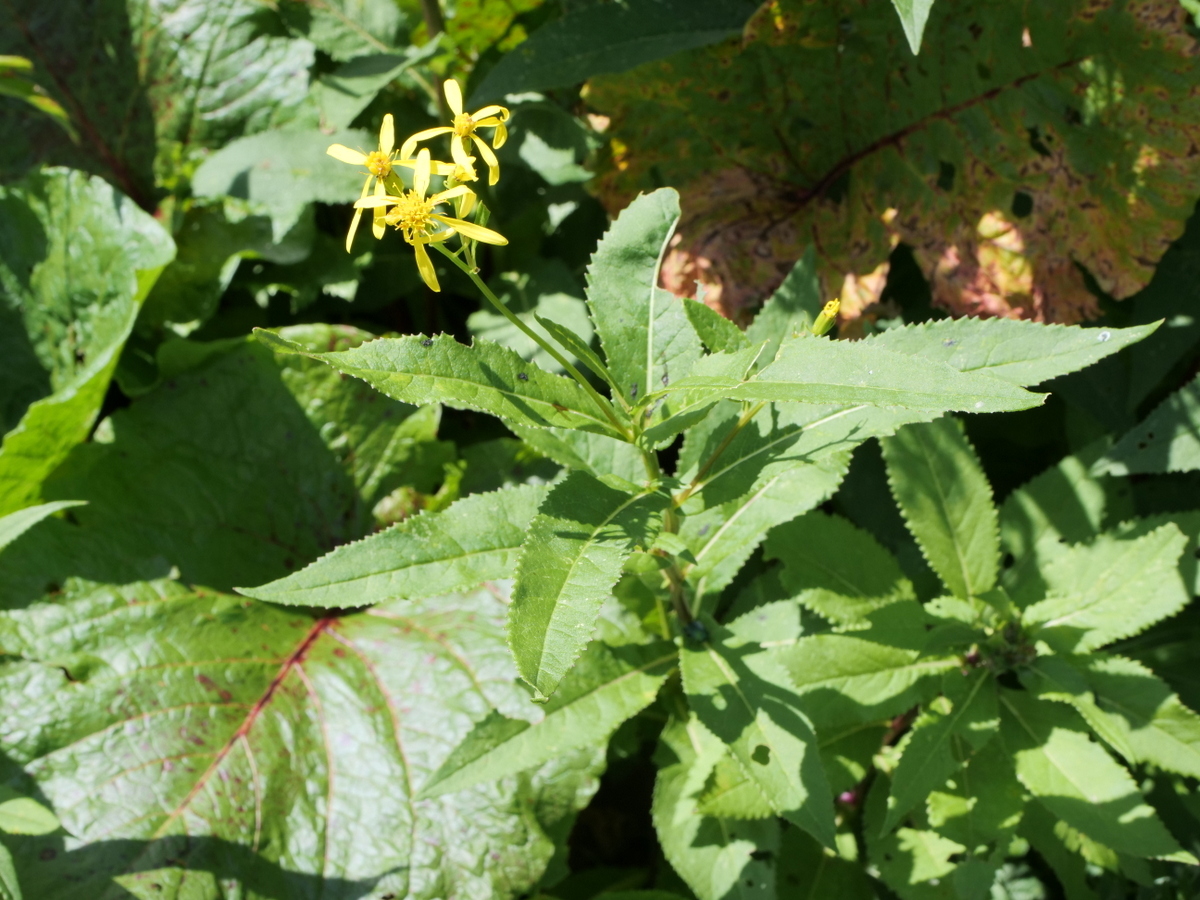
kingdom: Plantae
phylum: Tracheophyta
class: Magnoliopsida
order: Asterales
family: Asteraceae
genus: Senecio
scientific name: Senecio ovatus
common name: Wood ragwort
